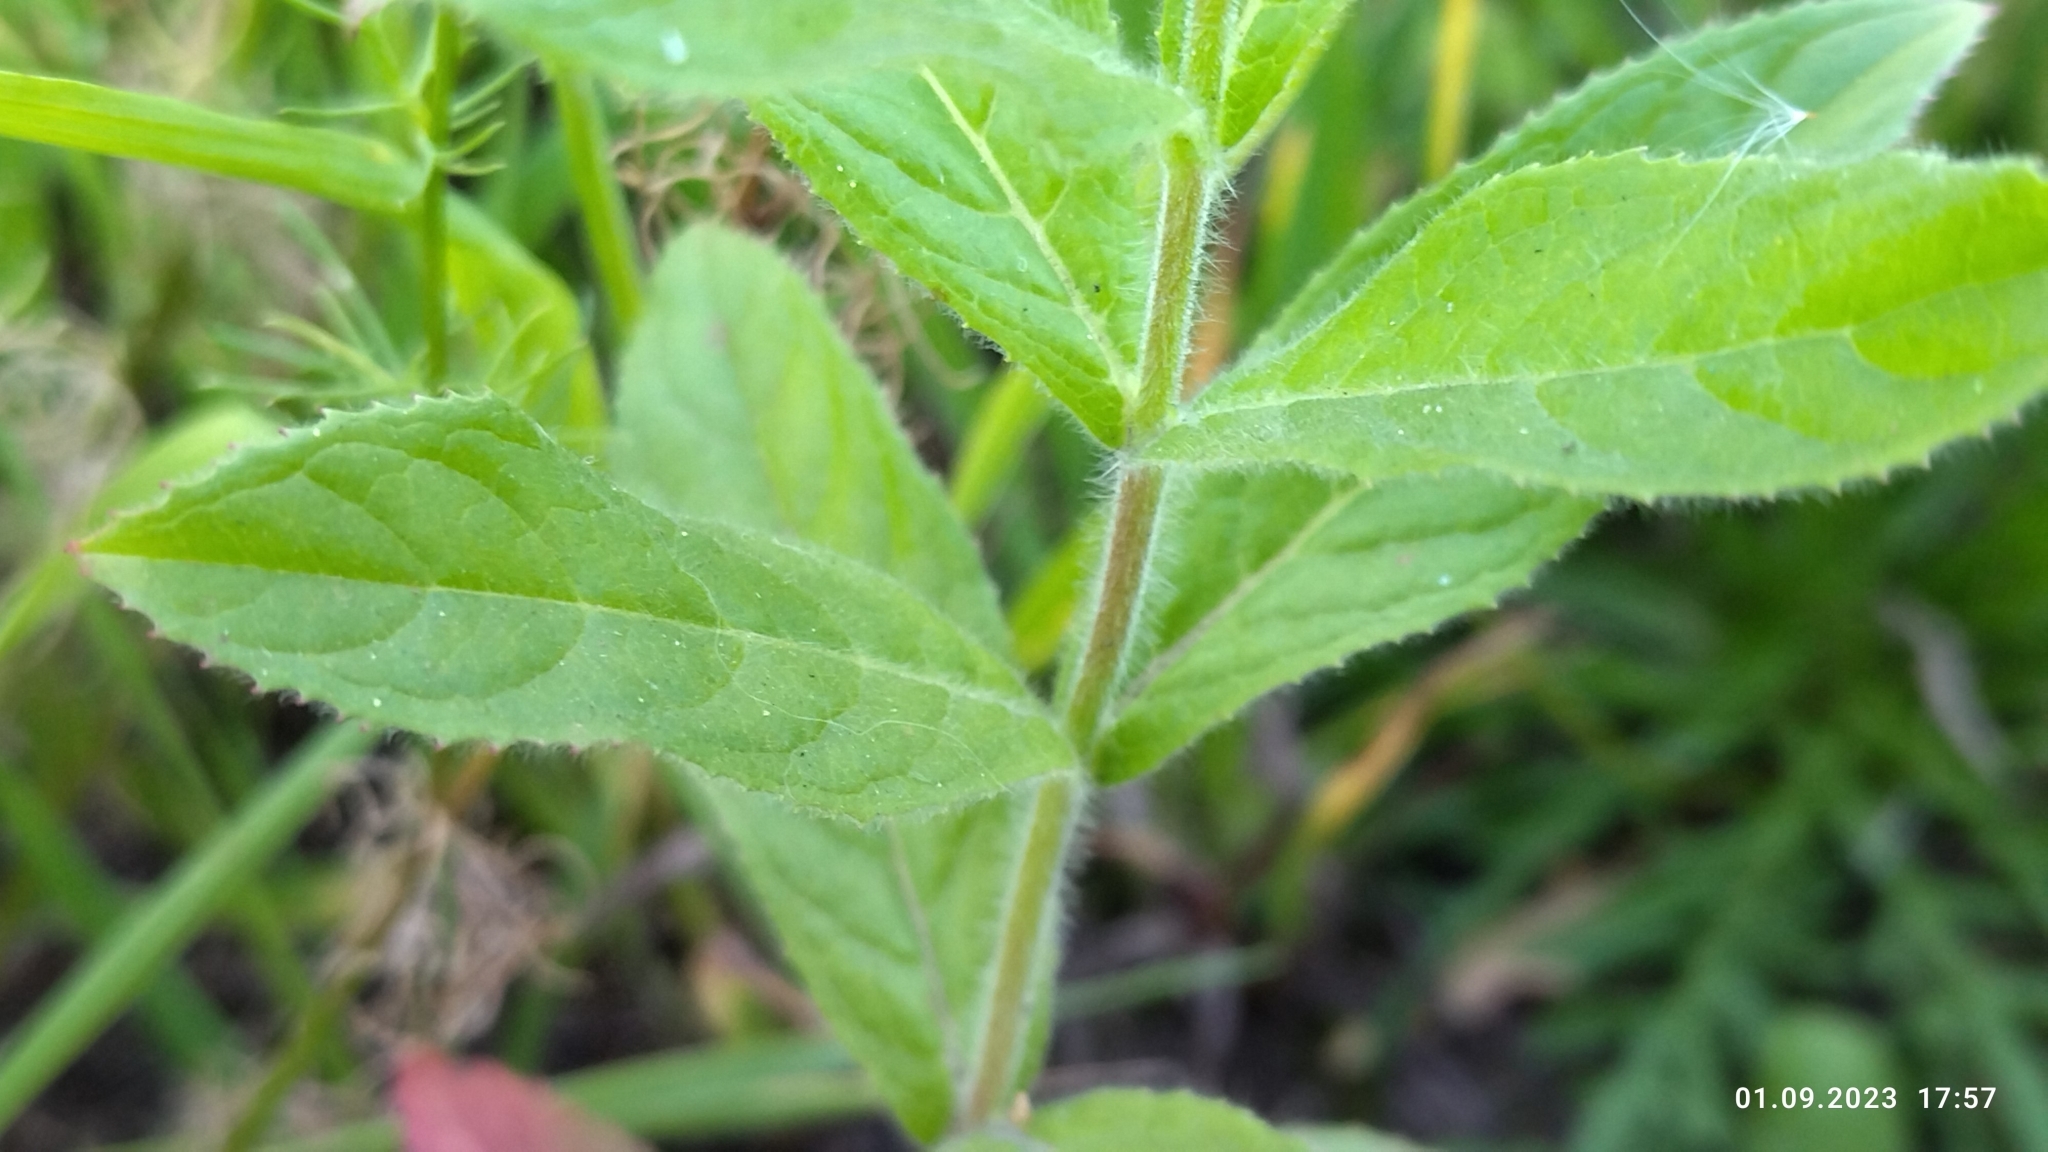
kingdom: Plantae
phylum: Tracheophyta
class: Magnoliopsida
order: Myrtales
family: Onagraceae
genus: Epilobium
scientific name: Epilobium hirsutum
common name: Great willowherb
